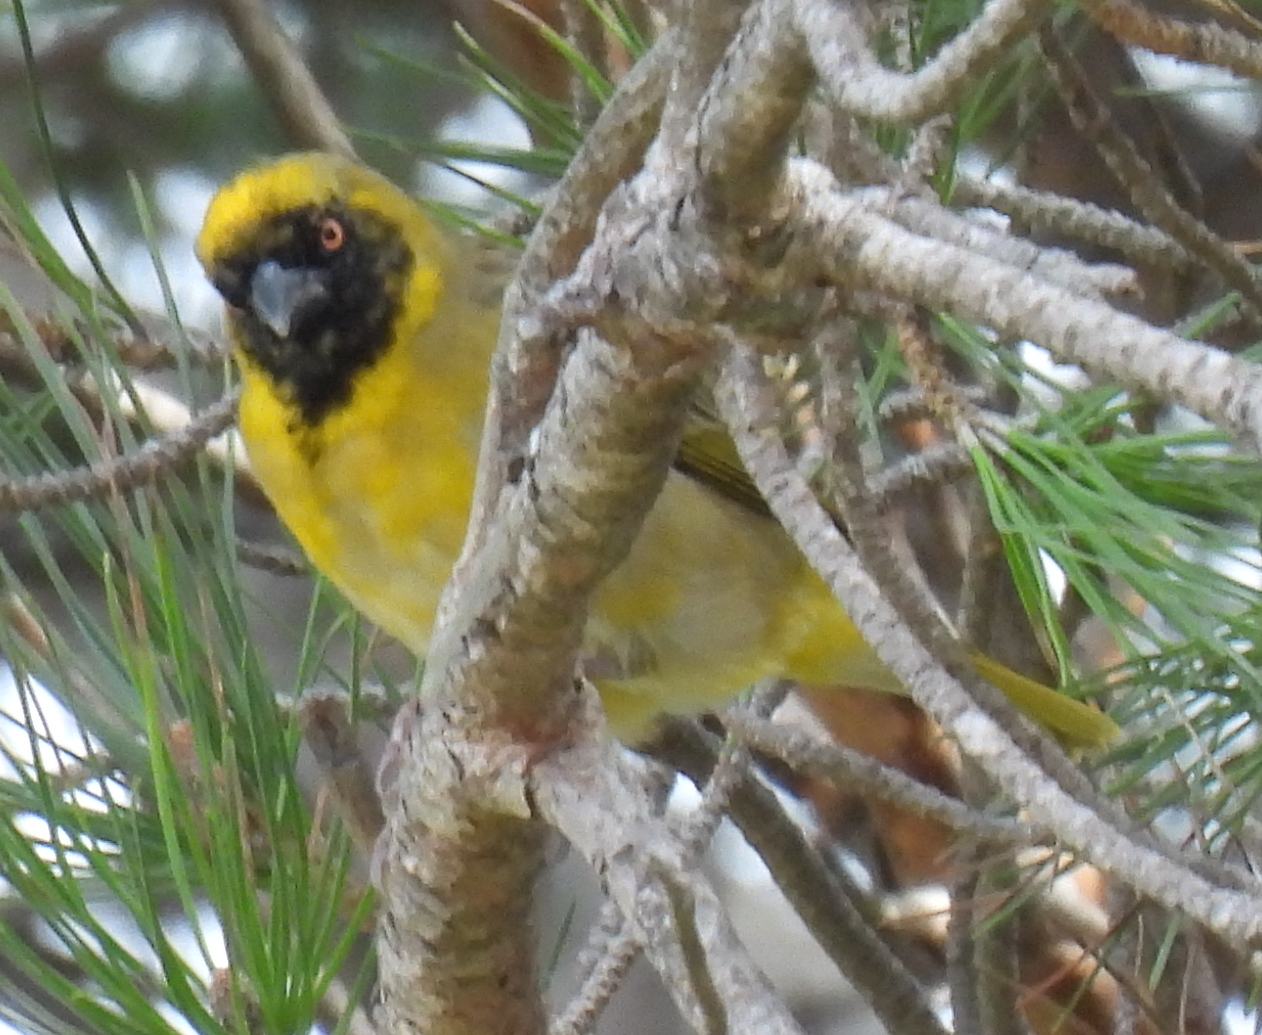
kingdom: Animalia
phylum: Chordata
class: Aves
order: Passeriformes
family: Ploceidae
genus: Ploceus
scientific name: Ploceus velatus
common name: Southern masked weaver
